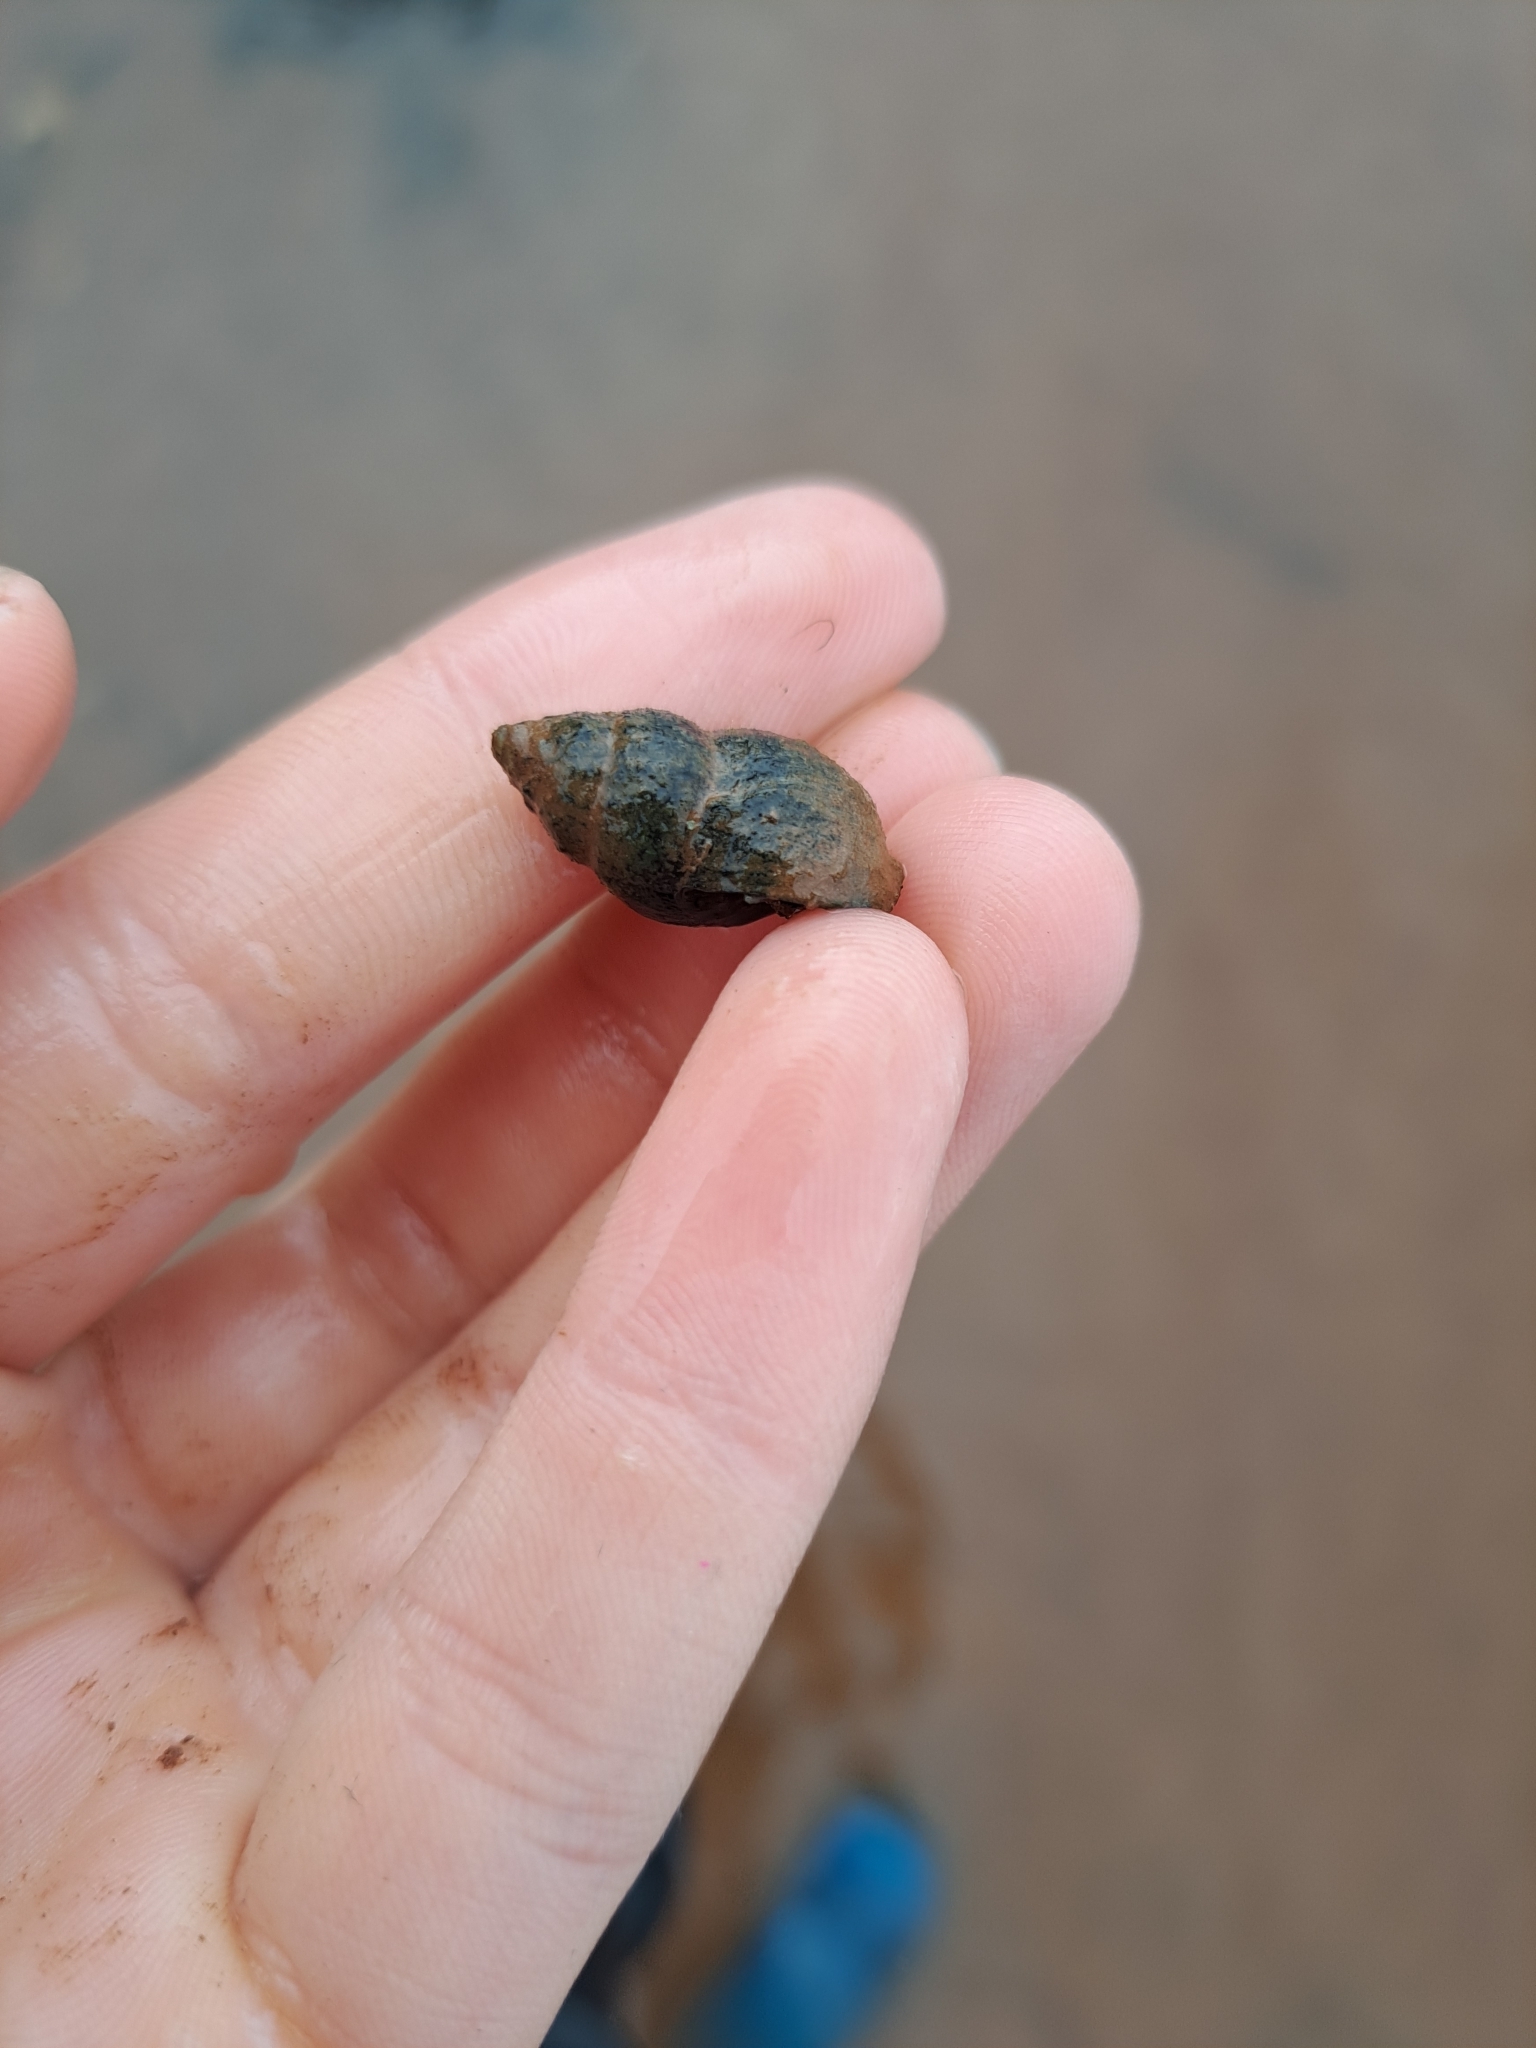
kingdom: Animalia
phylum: Mollusca
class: Gastropoda
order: Neogastropoda
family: Nassariidae
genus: Ilyanassa
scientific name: Ilyanassa obsoleta
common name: Eastern mudsnail
